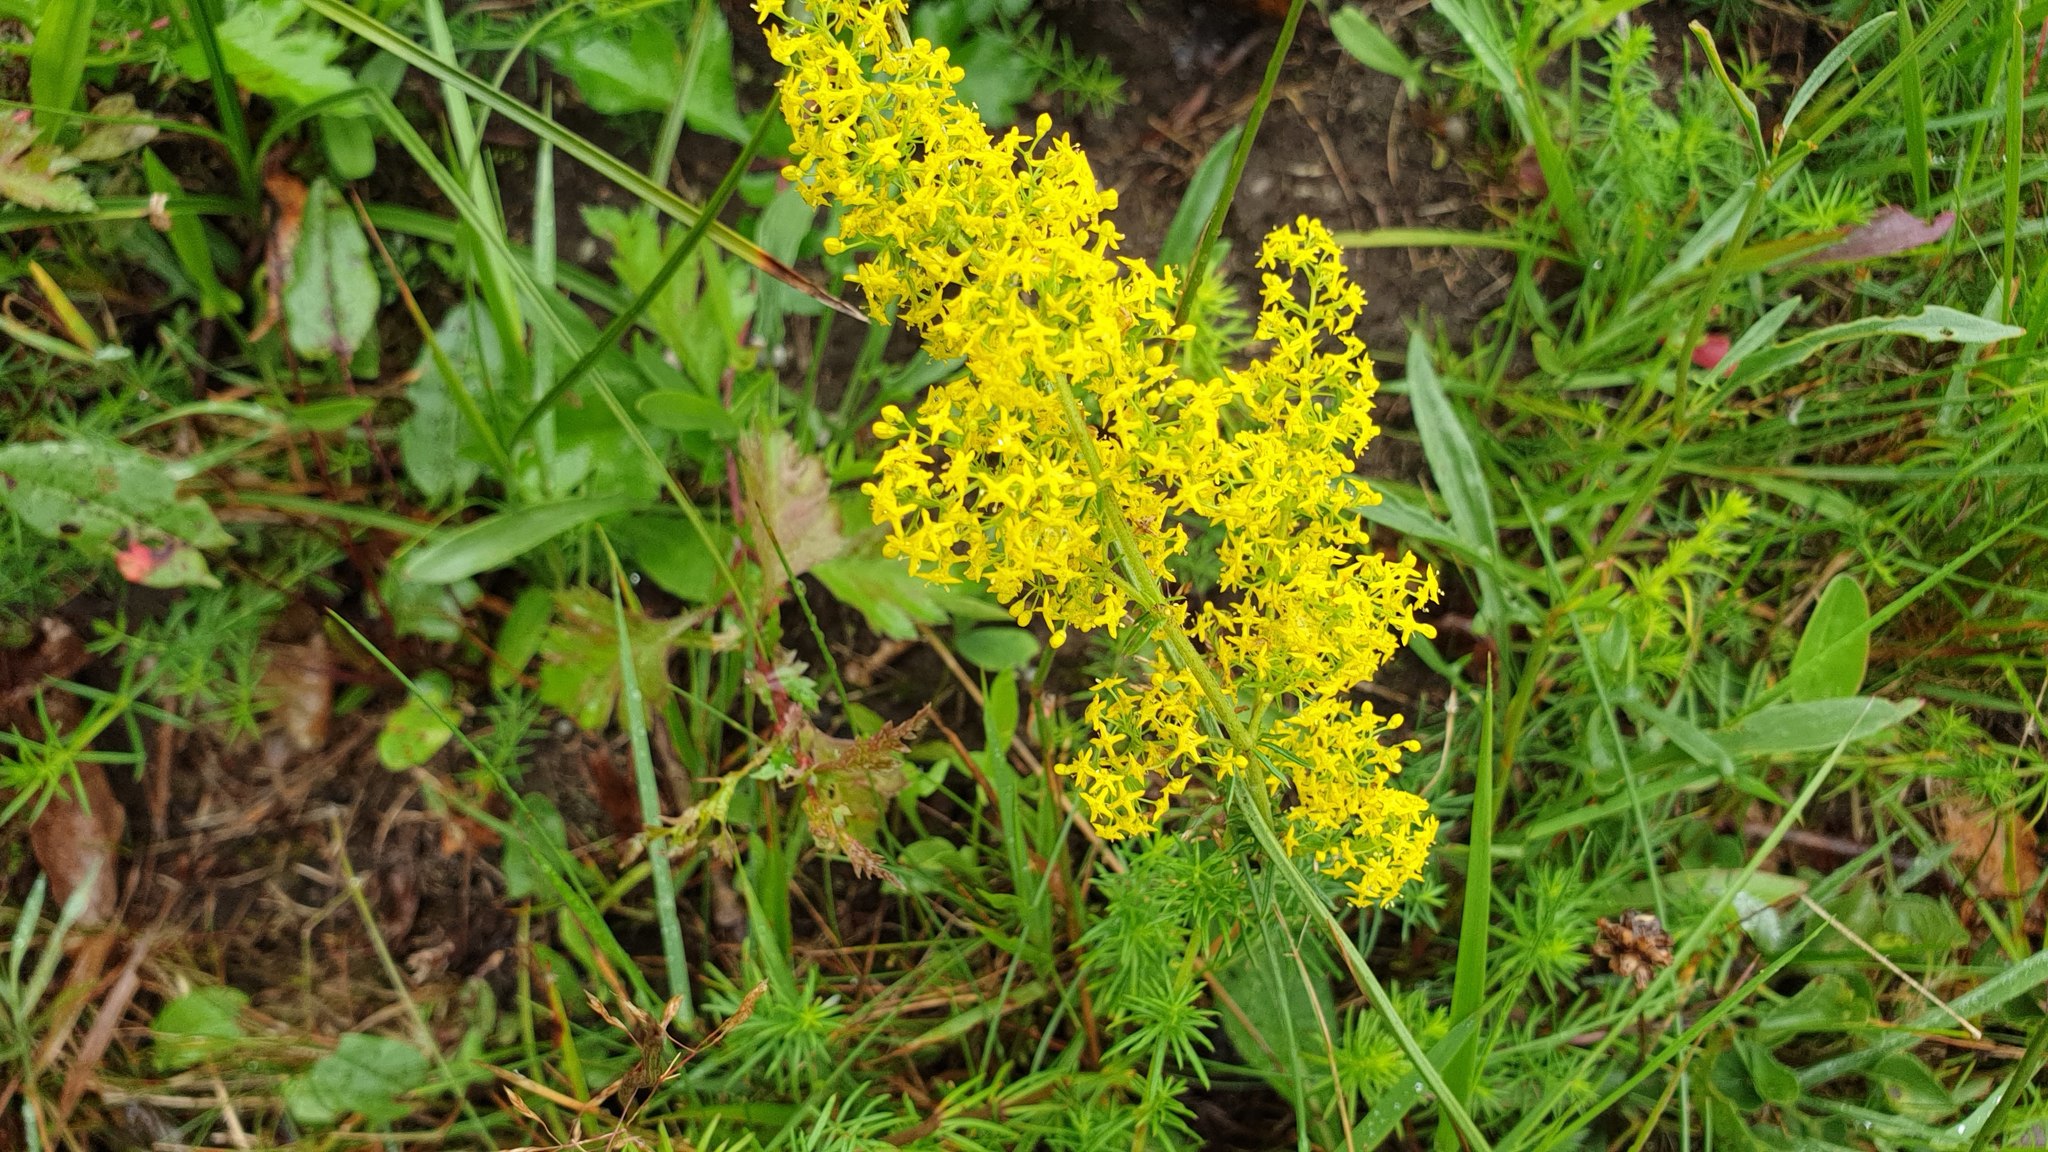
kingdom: Plantae
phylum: Tracheophyta
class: Magnoliopsida
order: Gentianales
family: Rubiaceae
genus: Galium
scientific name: Galium verum
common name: Lady's bedstraw
